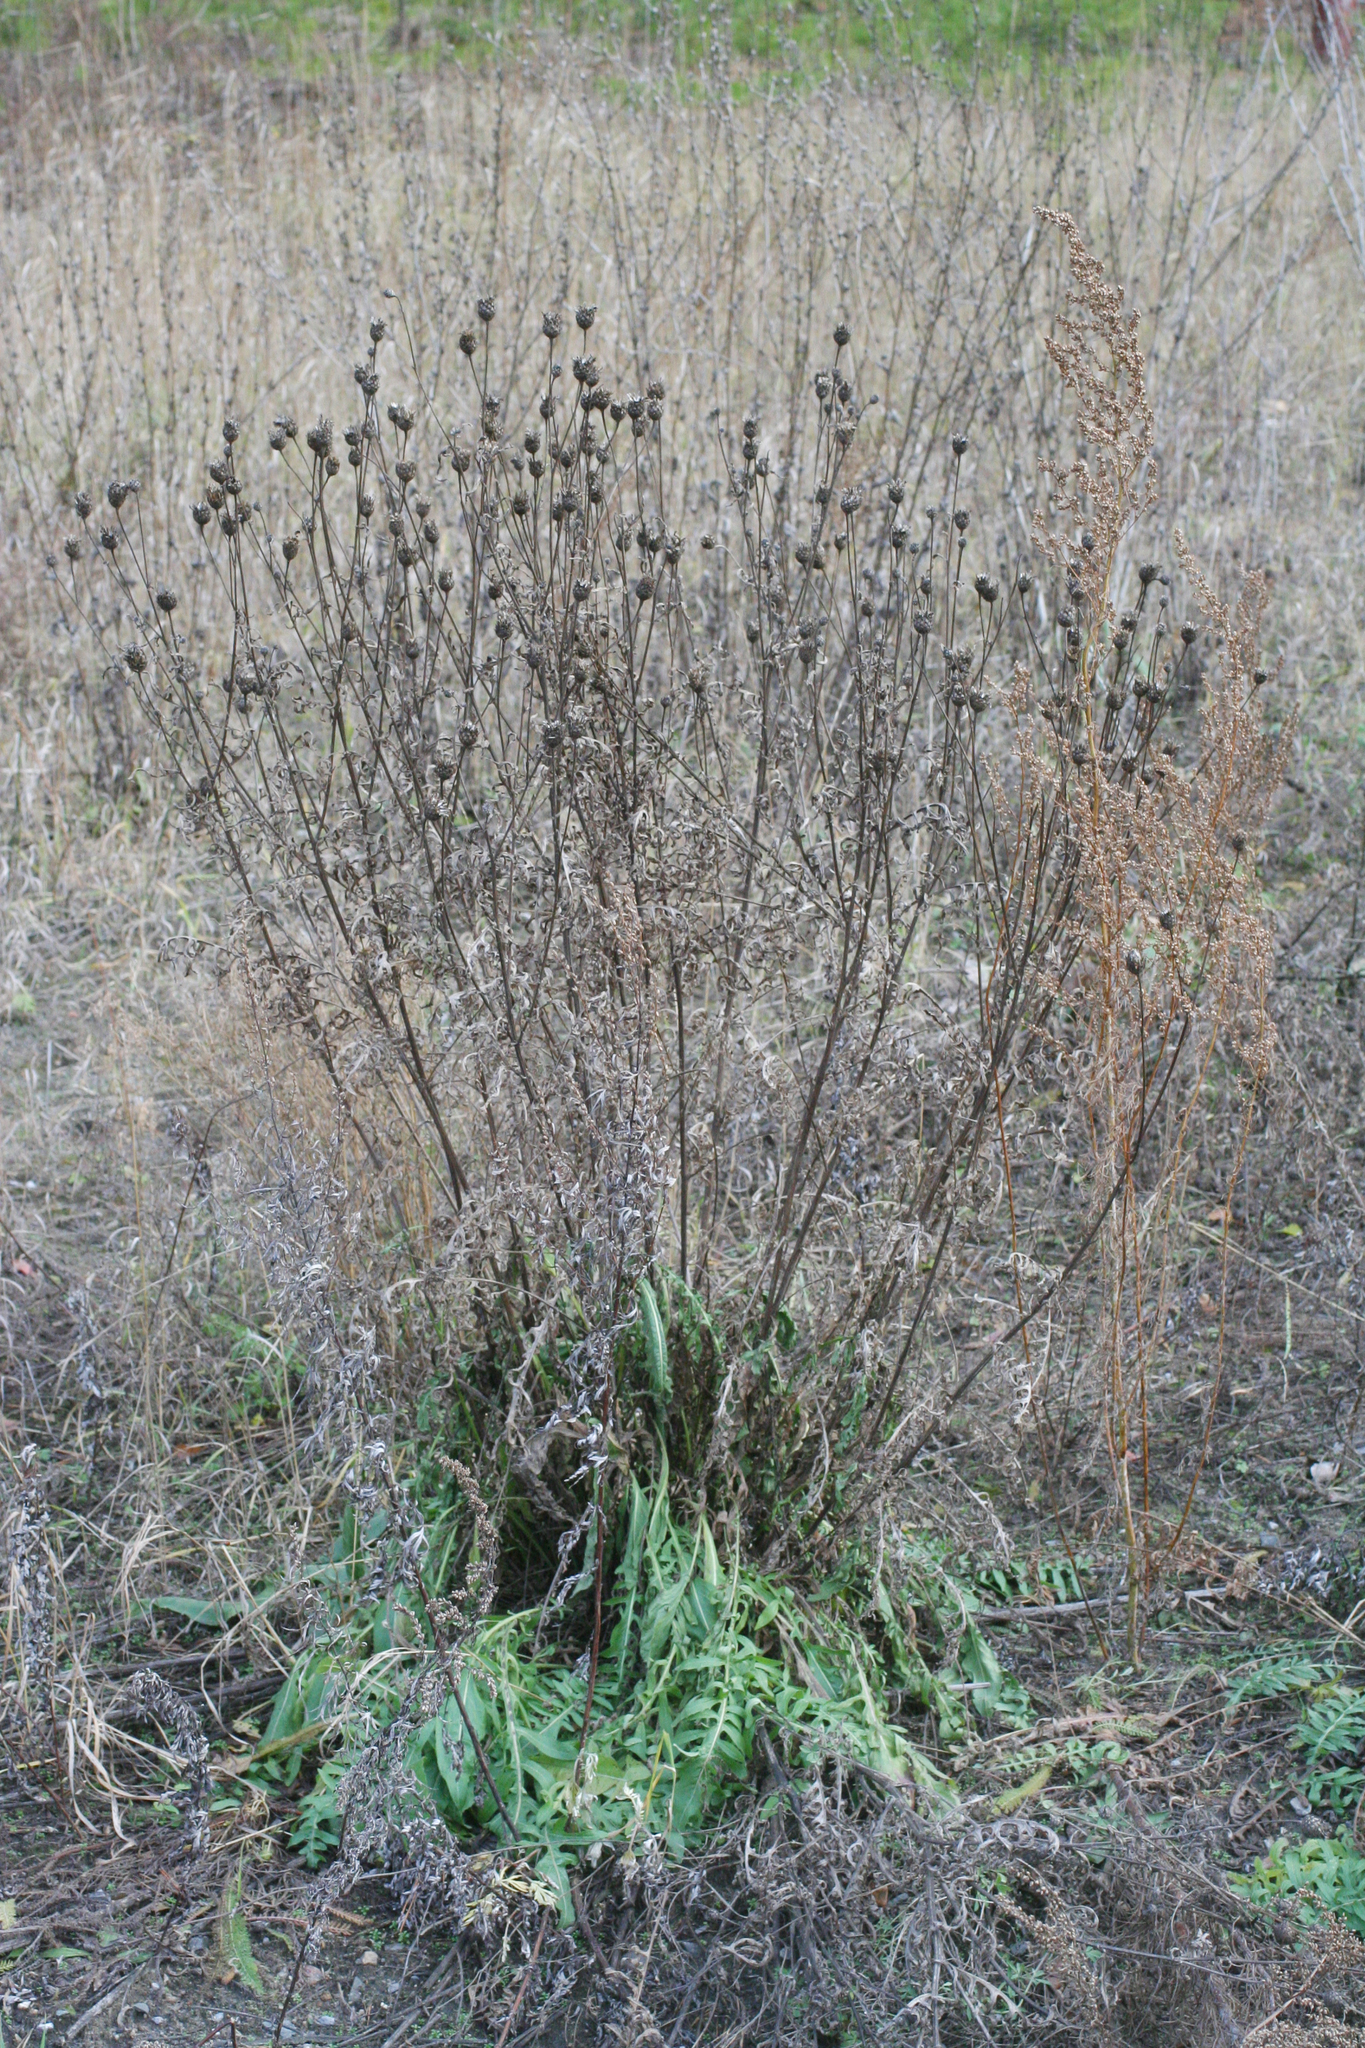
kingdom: Plantae
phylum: Tracheophyta
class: Magnoliopsida
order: Asterales
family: Asteraceae
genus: Centaurea
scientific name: Centaurea scabiosa
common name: Greater knapweed
